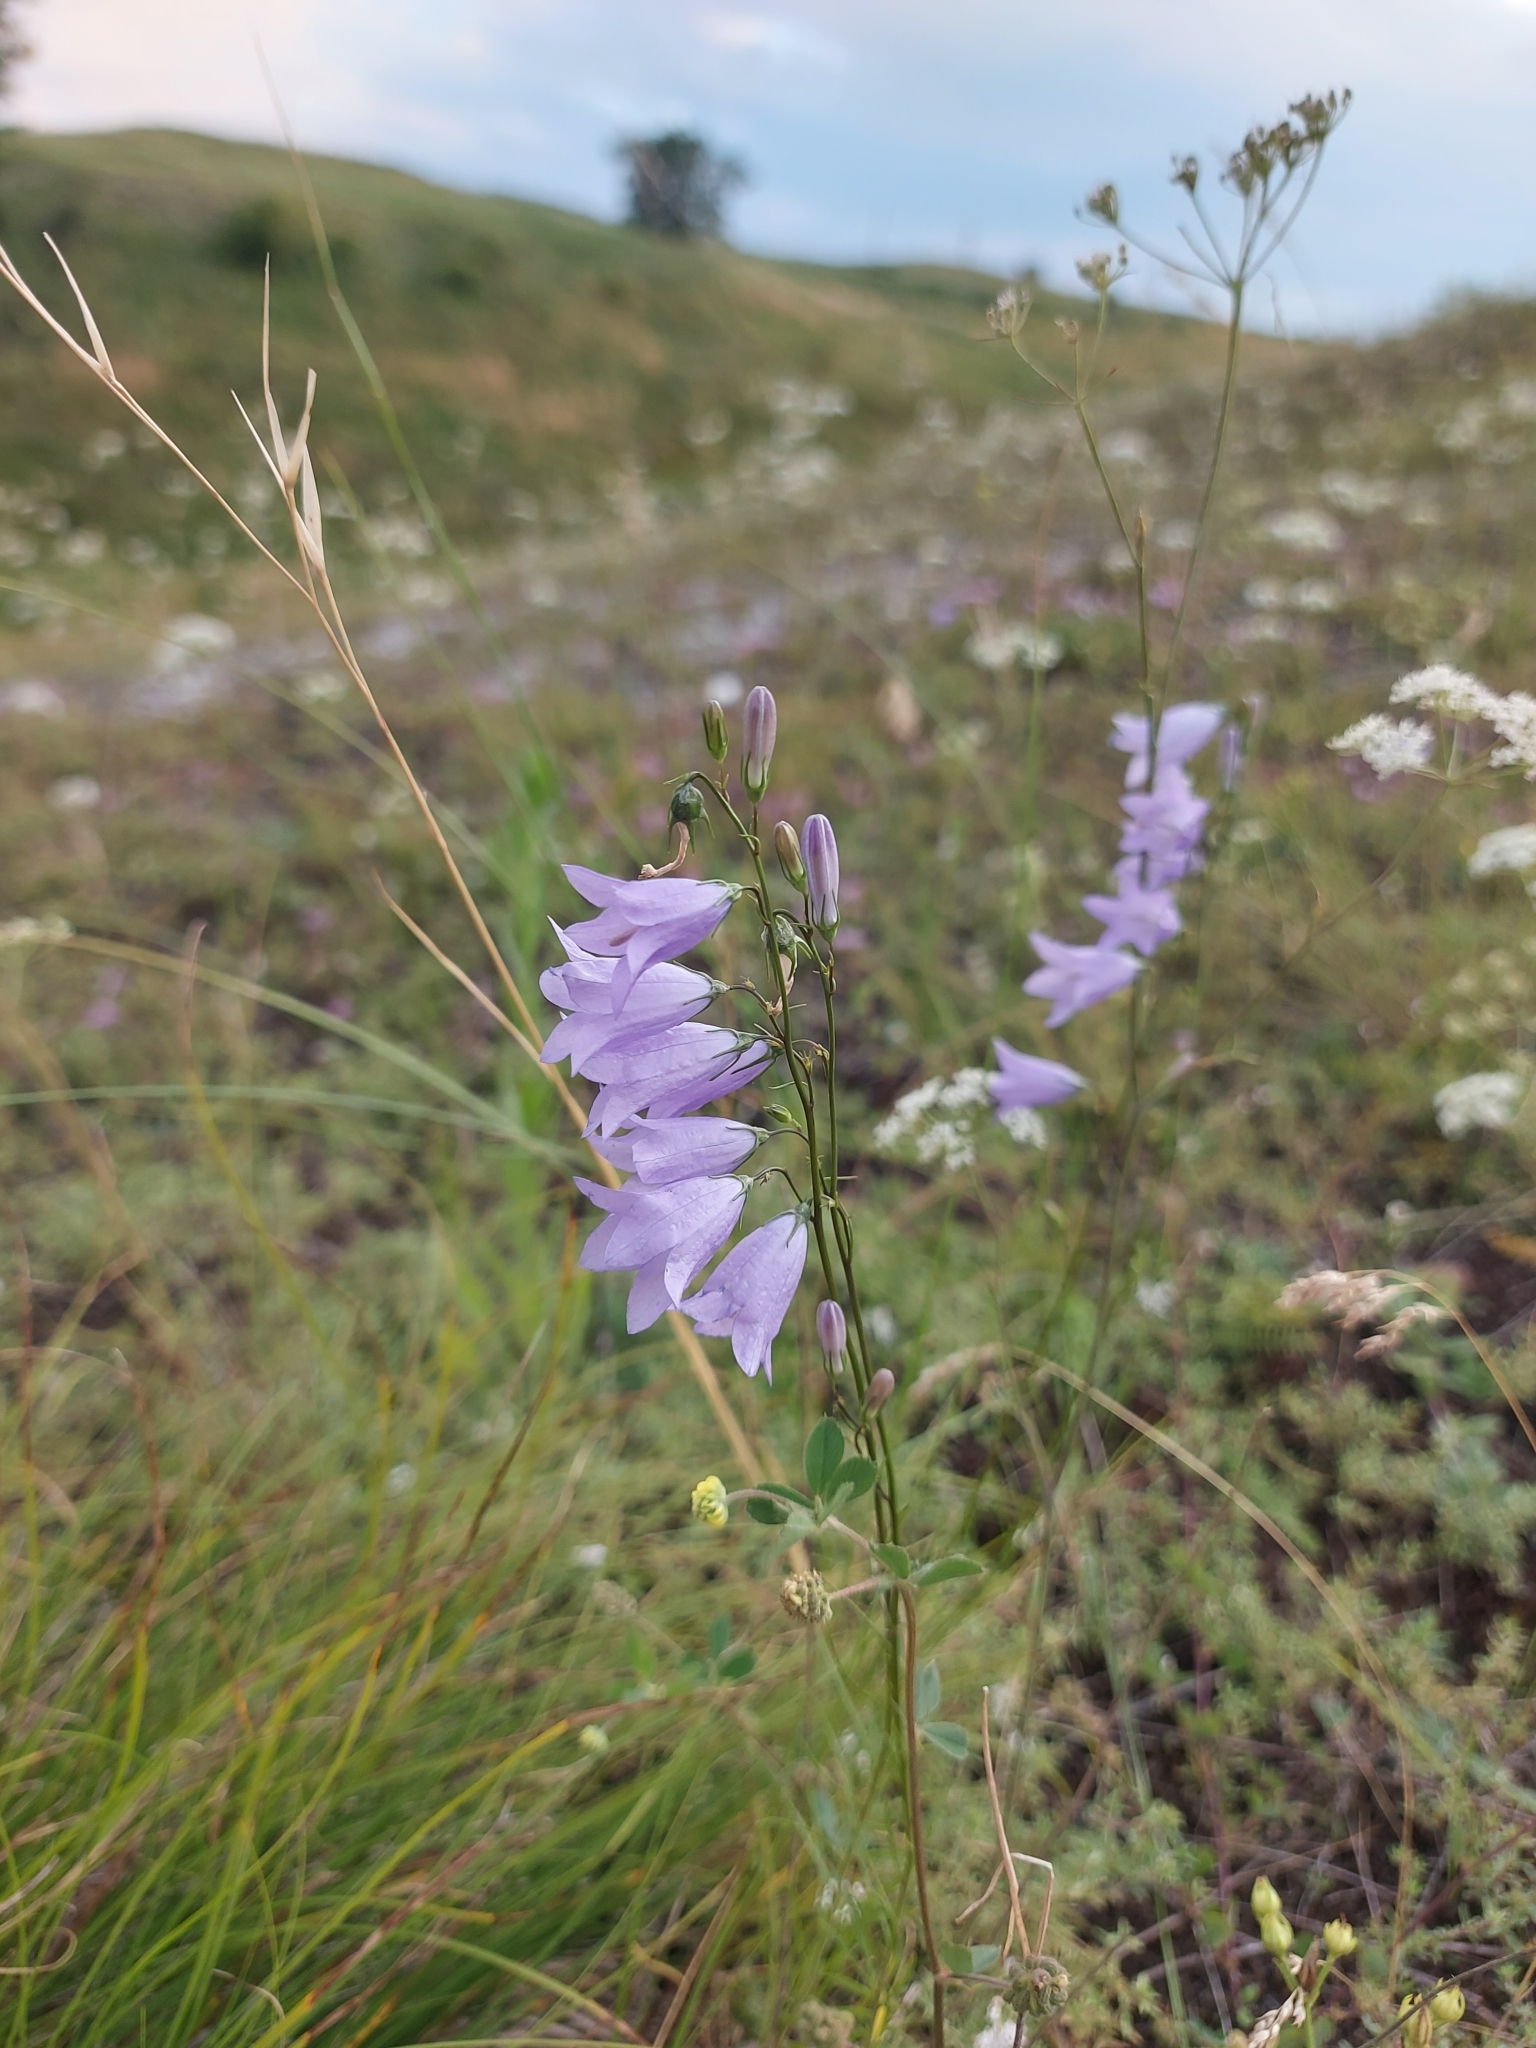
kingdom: Plantae
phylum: Tracheophyta
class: Magnoliopsida
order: Asterales
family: Campanulaceae
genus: Campanula
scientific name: Campanula rotundifolia
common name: Harebell
